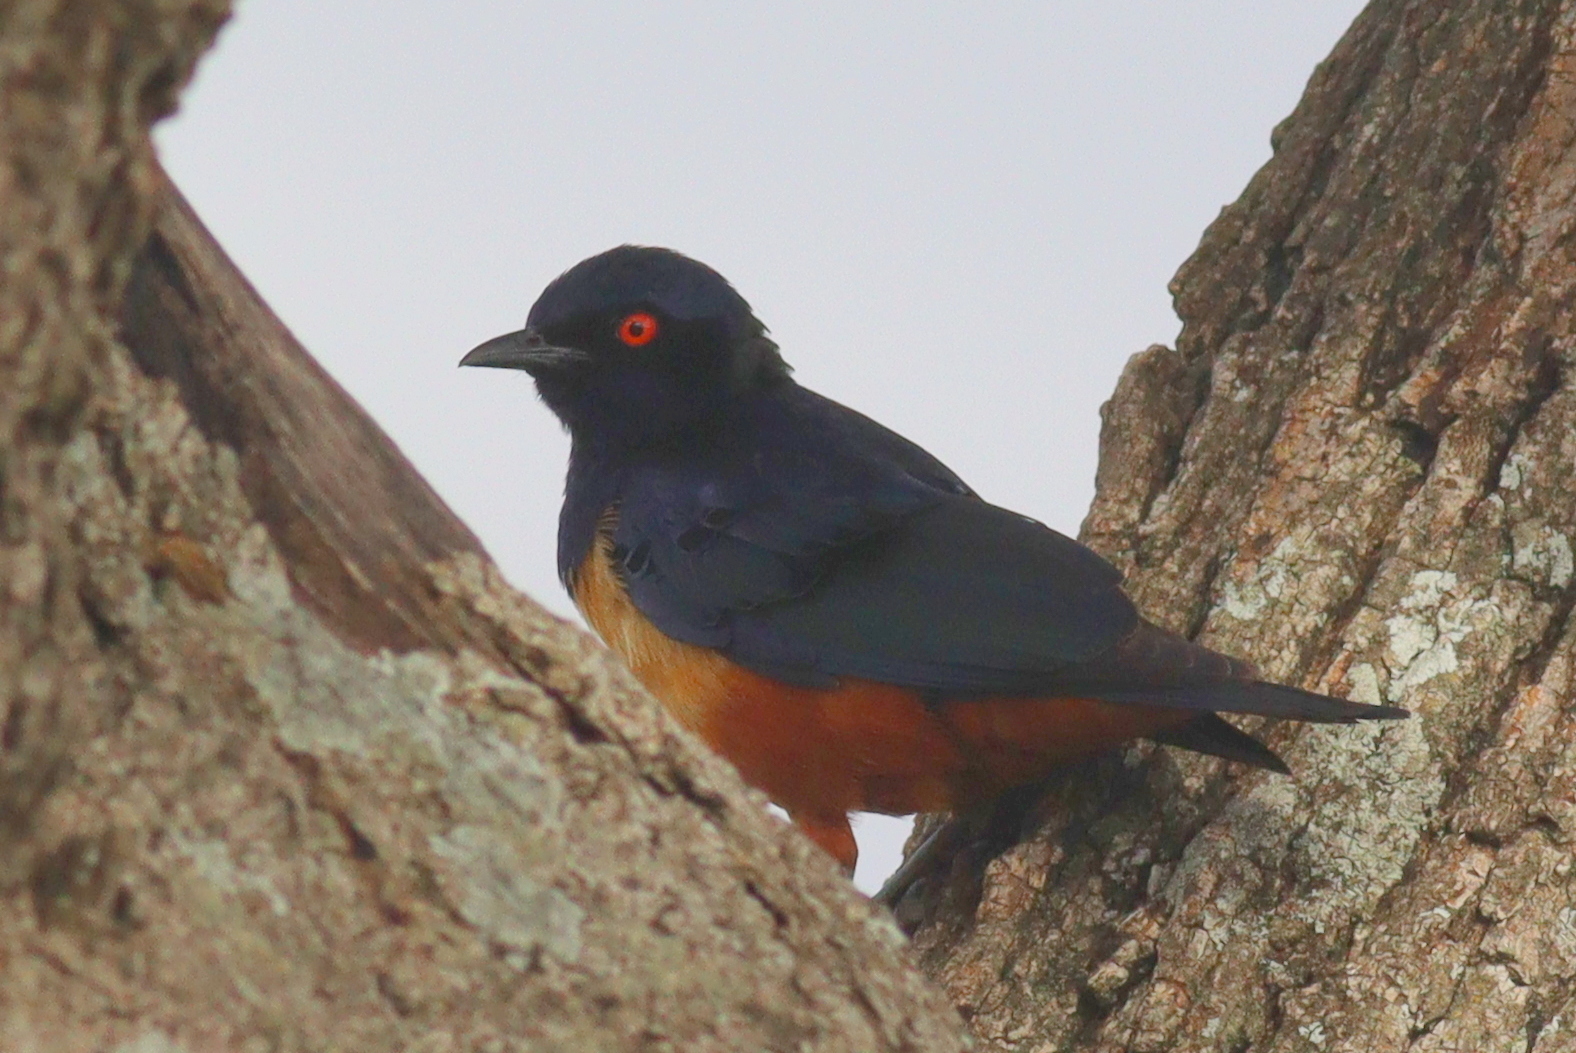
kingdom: Animalia
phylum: Chordata
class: Aves
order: Passeriformes
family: Sturnidae
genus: Lamprotornis
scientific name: Lamprotornis hildebrandti
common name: Hildebrandt's starling
